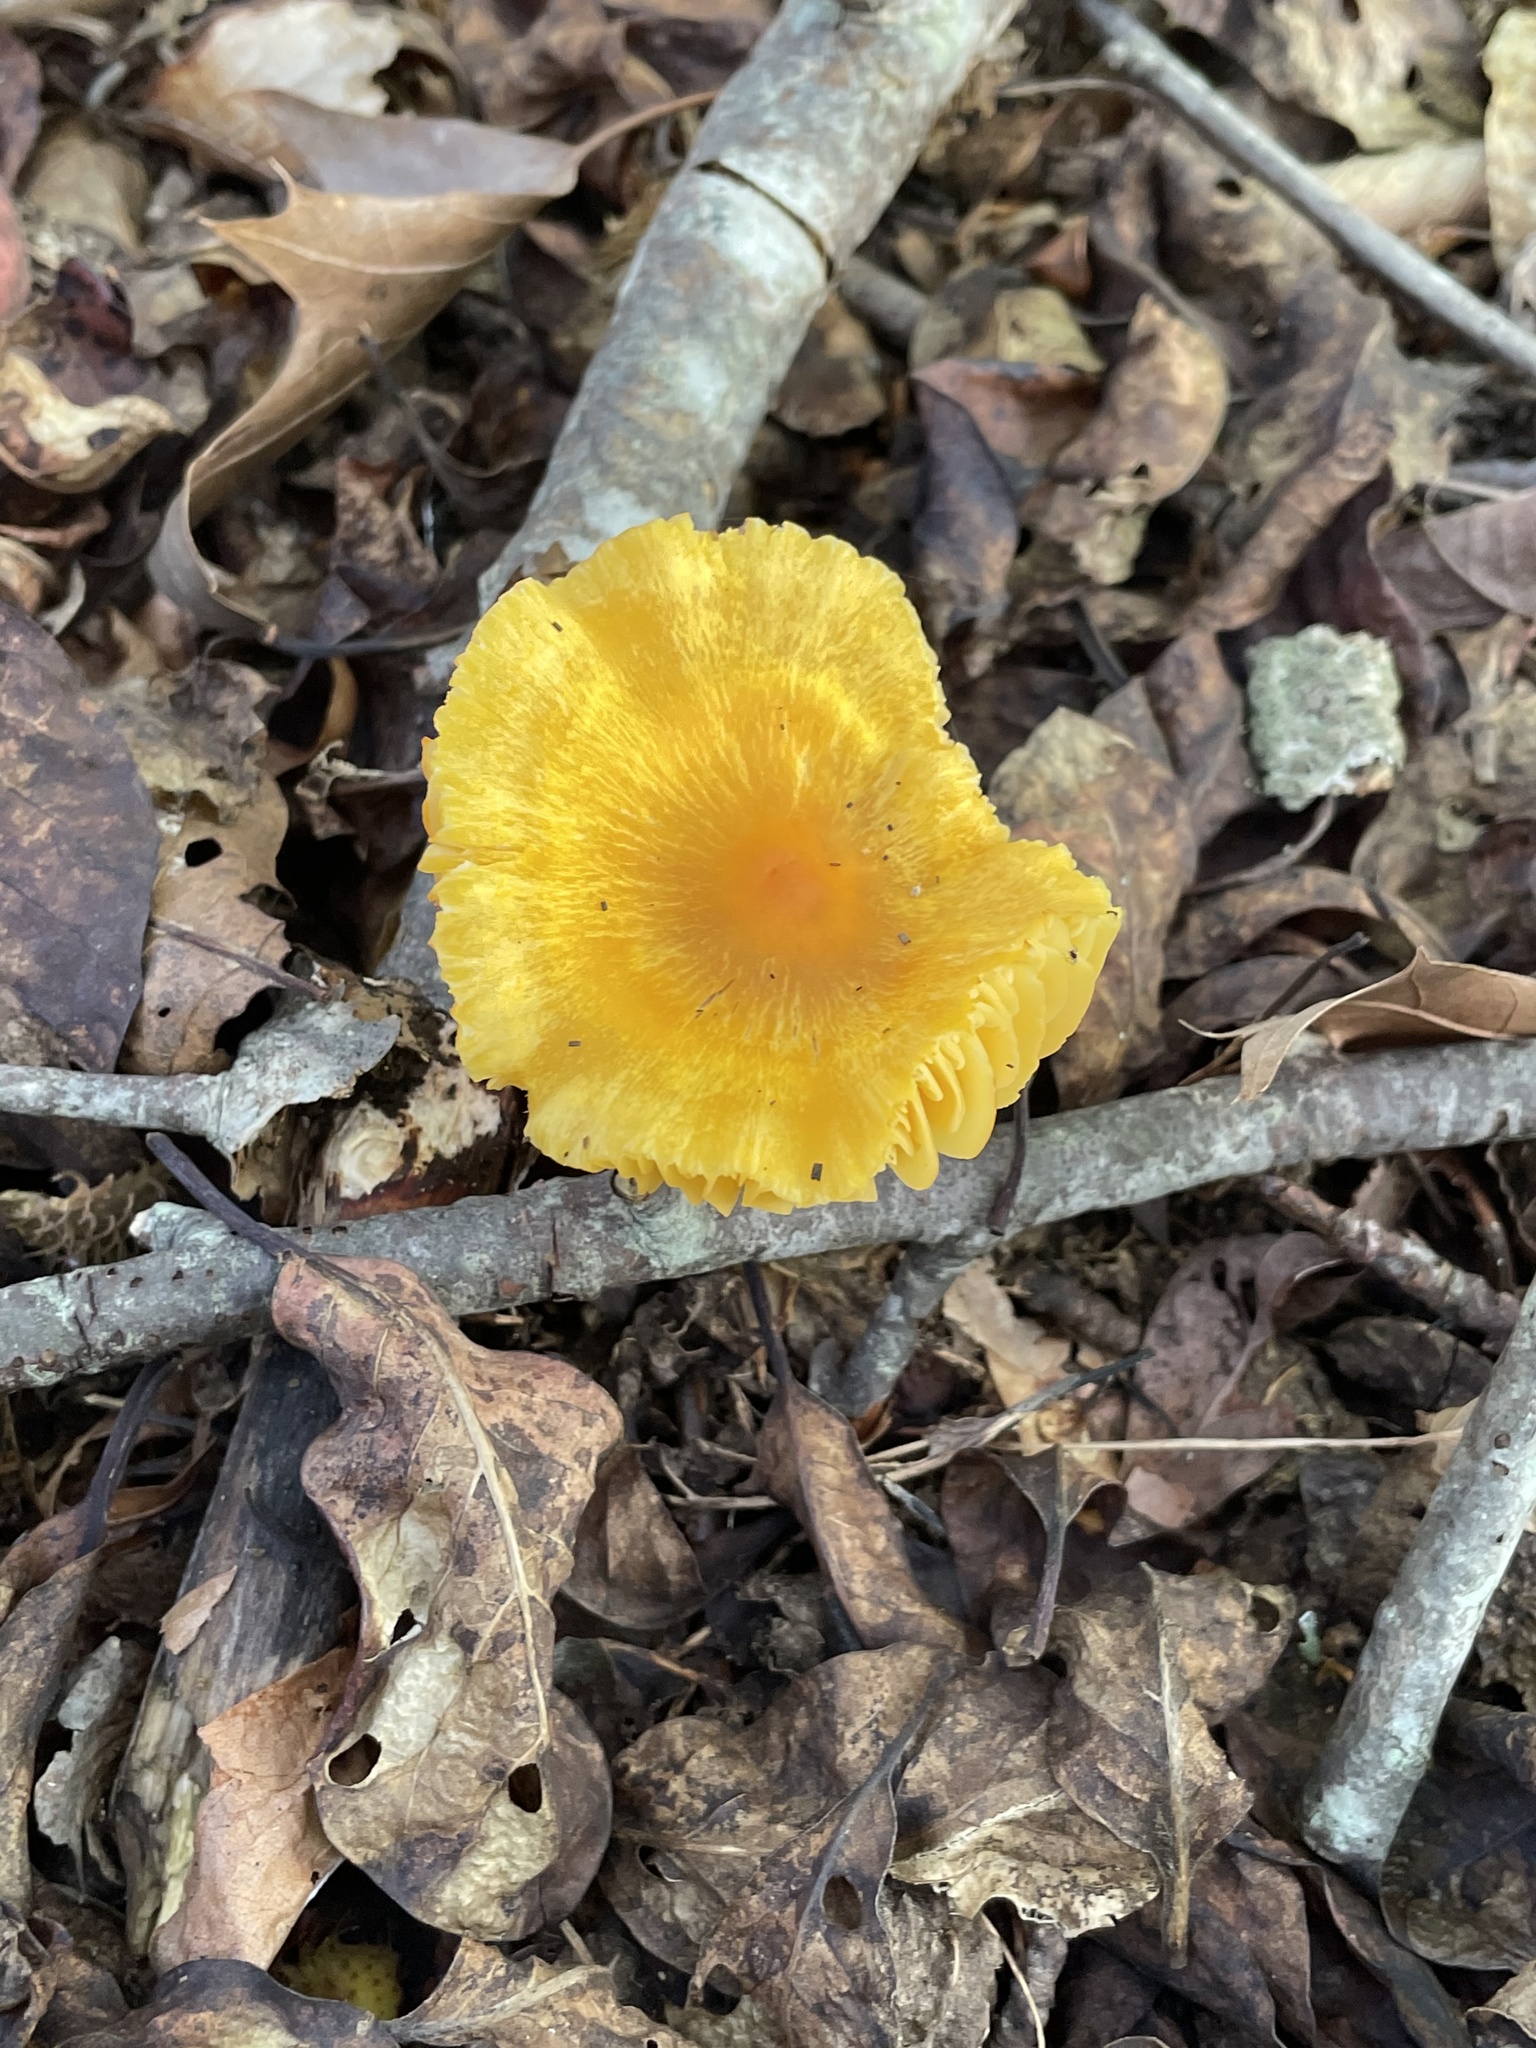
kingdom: Fungi
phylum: Basidiomycota
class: Agaricomycetes
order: Agaricales
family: Hygrophoraceae
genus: Humidicutis
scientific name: Humidicutis marginata
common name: Orange gilled waxcap
